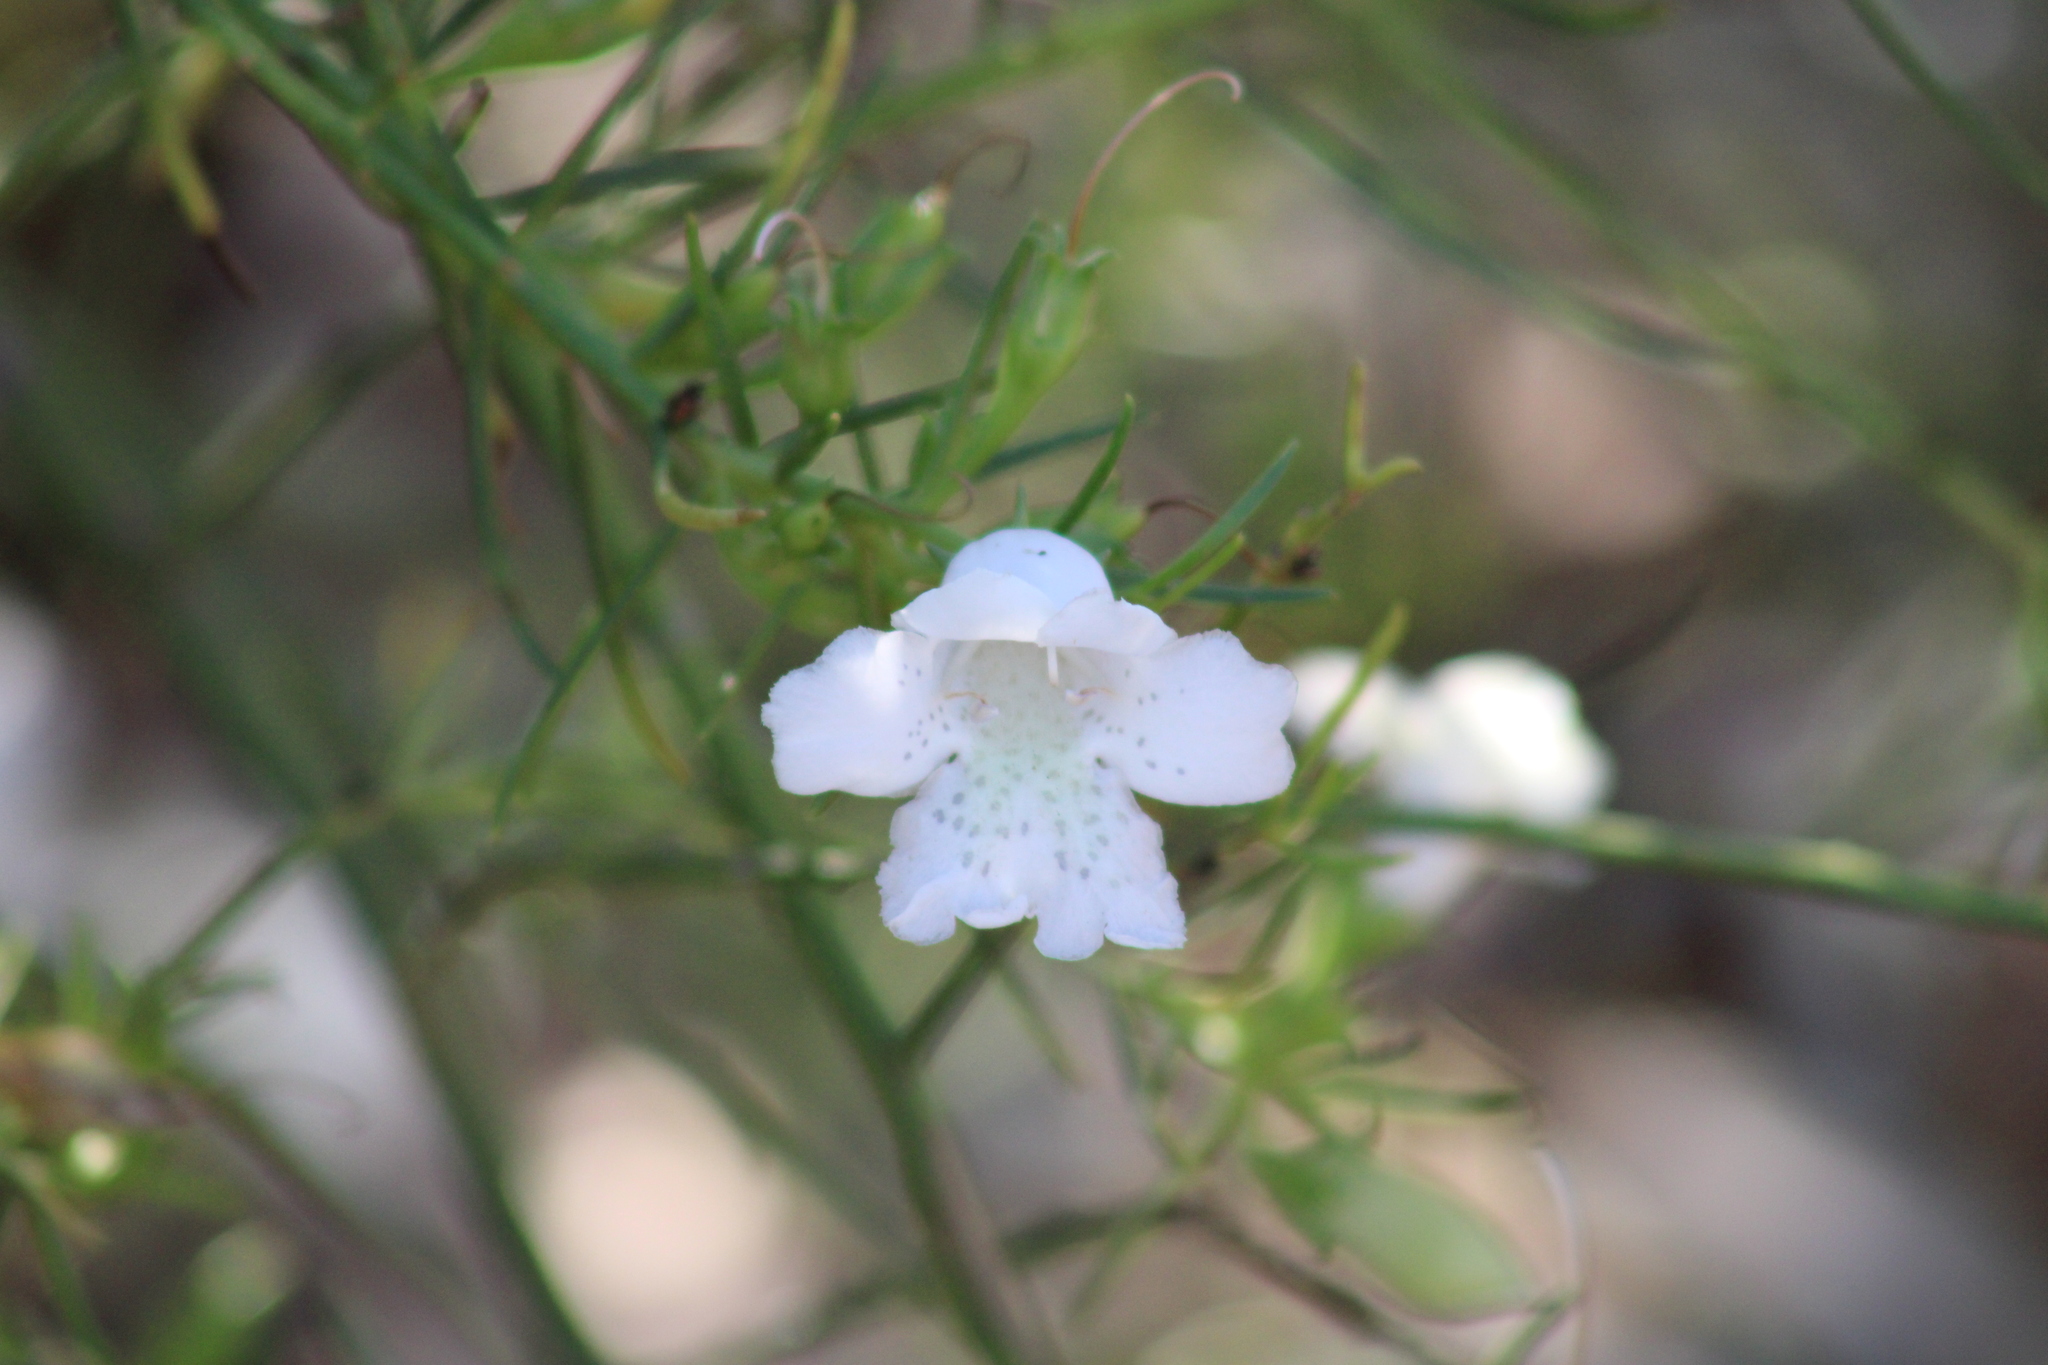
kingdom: Plantae
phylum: Tracheophyta
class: Magnoliopsida
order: Lamiales
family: Scrophulariaceae
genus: Eremophila
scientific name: Eremophila polyclada
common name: Lignum-fuchsia
